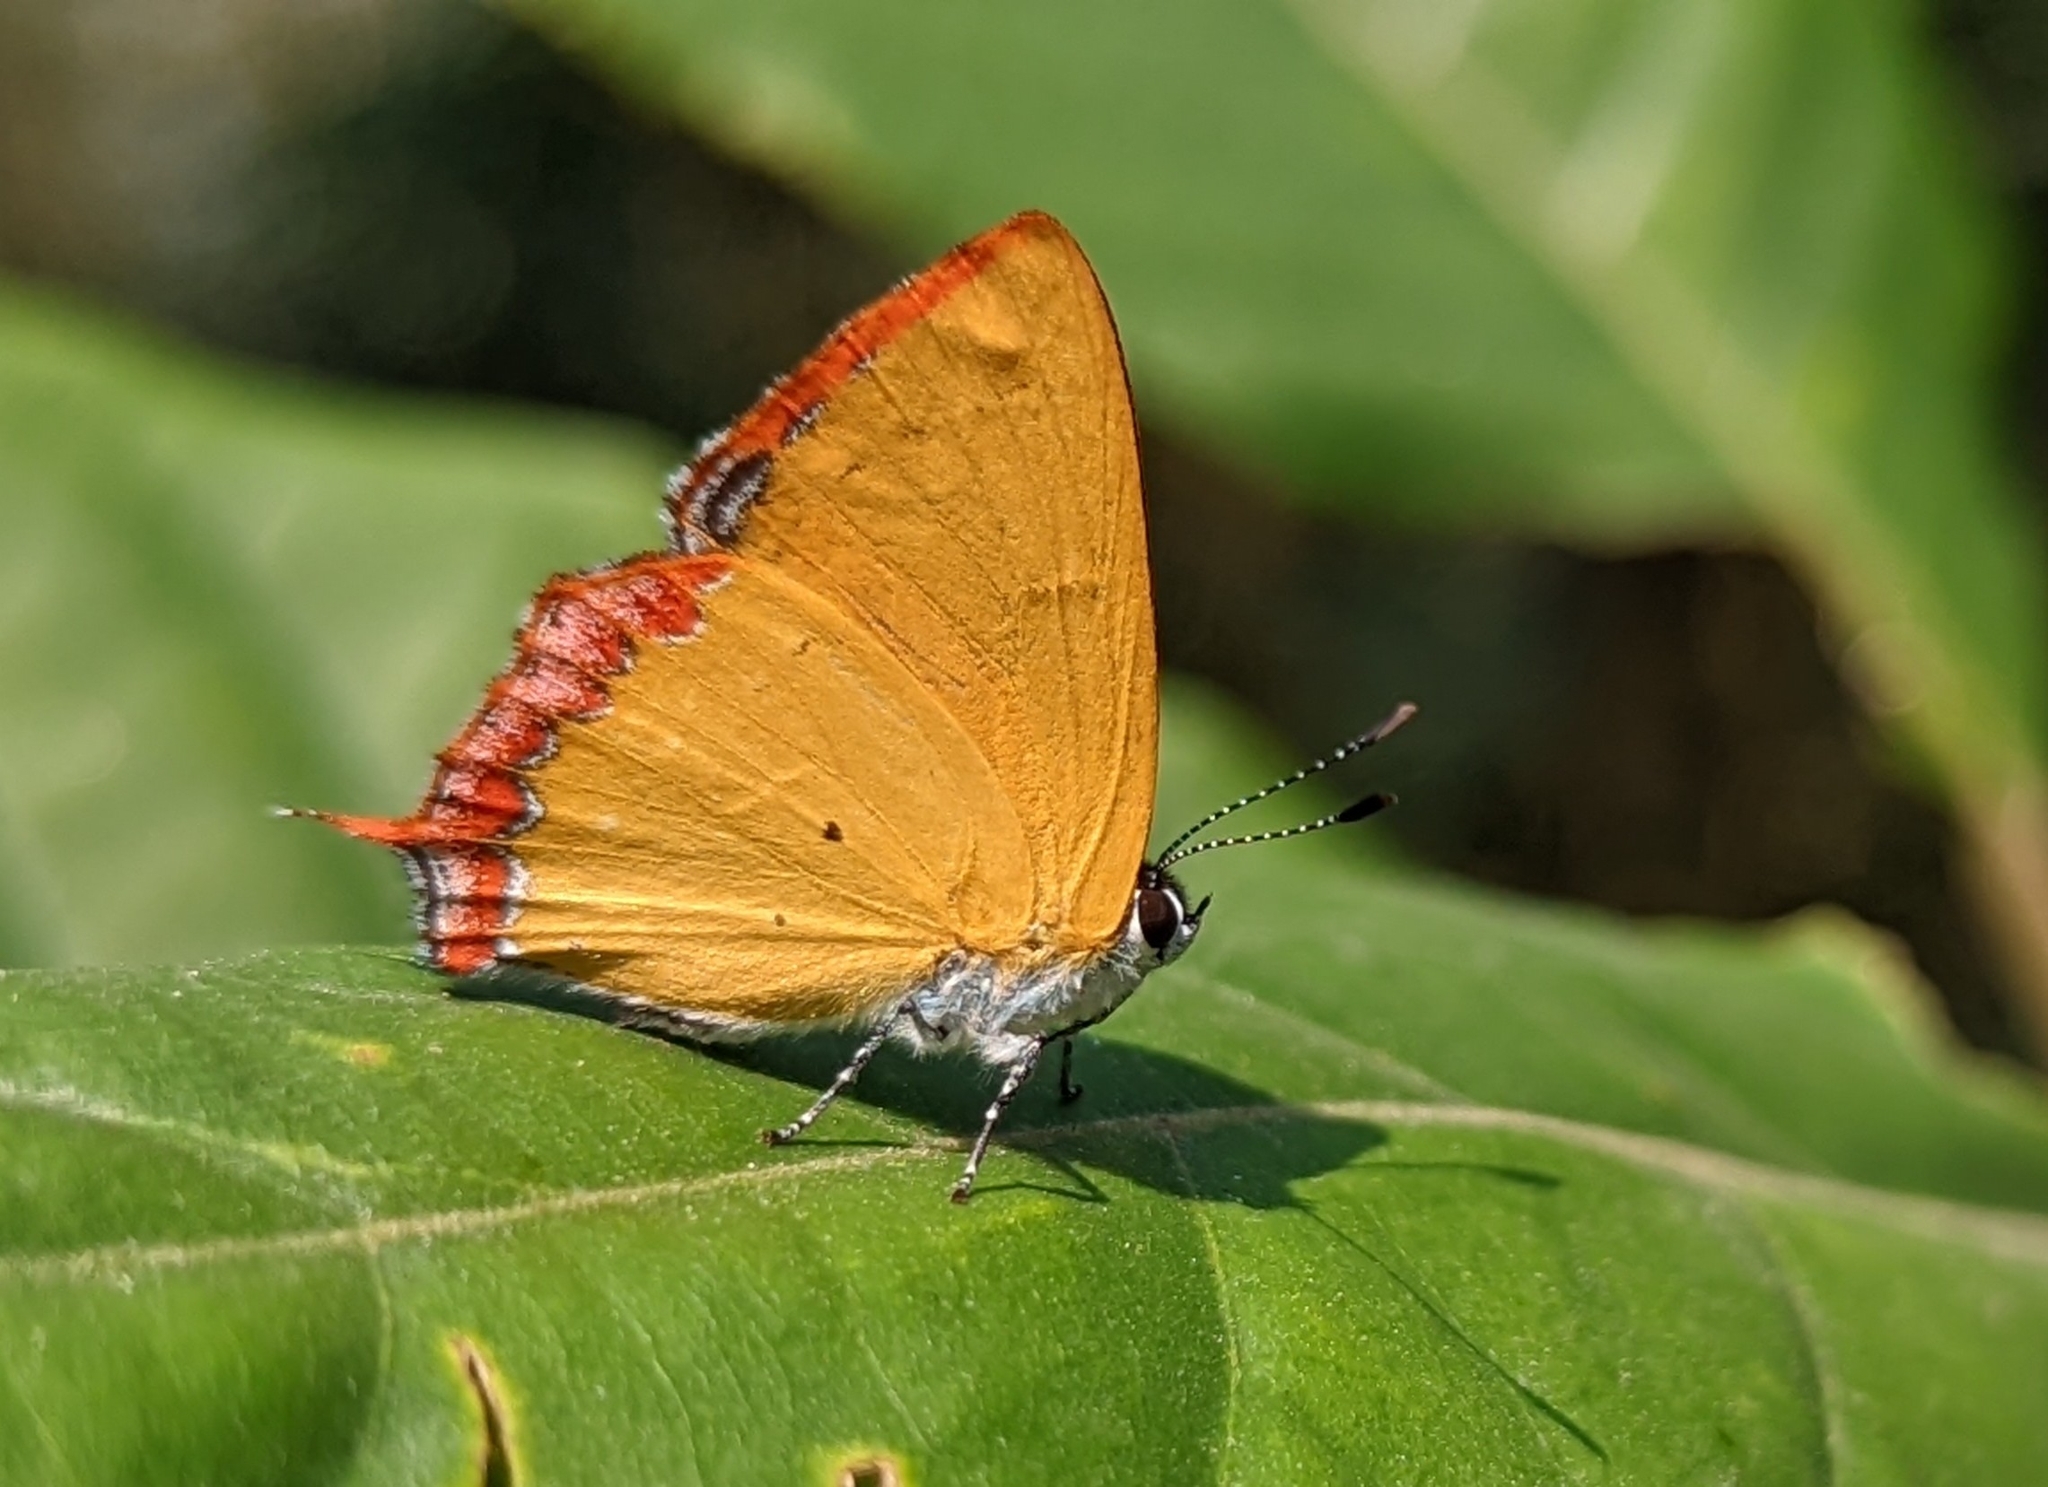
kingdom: Animalia
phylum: Arthropoda
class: Insecta
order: Lepidoptera
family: Lycaenidae
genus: Heliophorus
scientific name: Heliophorus indicus
